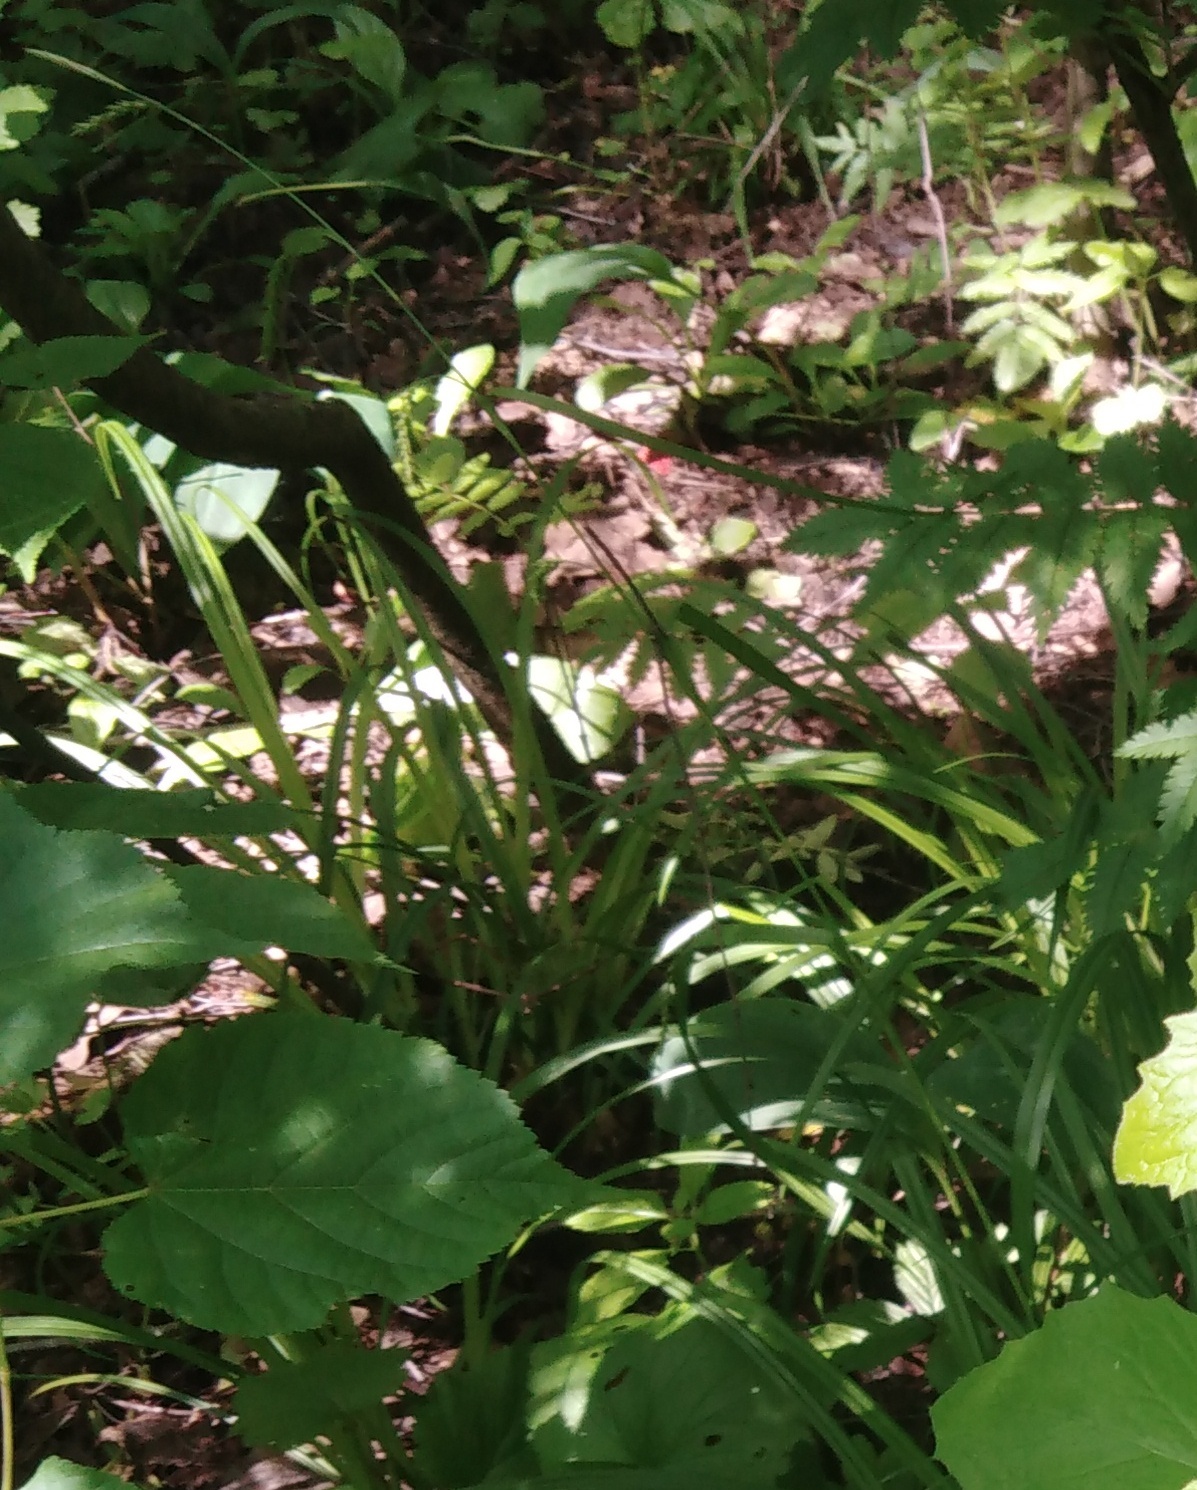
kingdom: Plantae
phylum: Tracheophyta
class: Liliopsida
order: Poales
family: Cyperaceae
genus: Carex
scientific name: Carex pilosa
